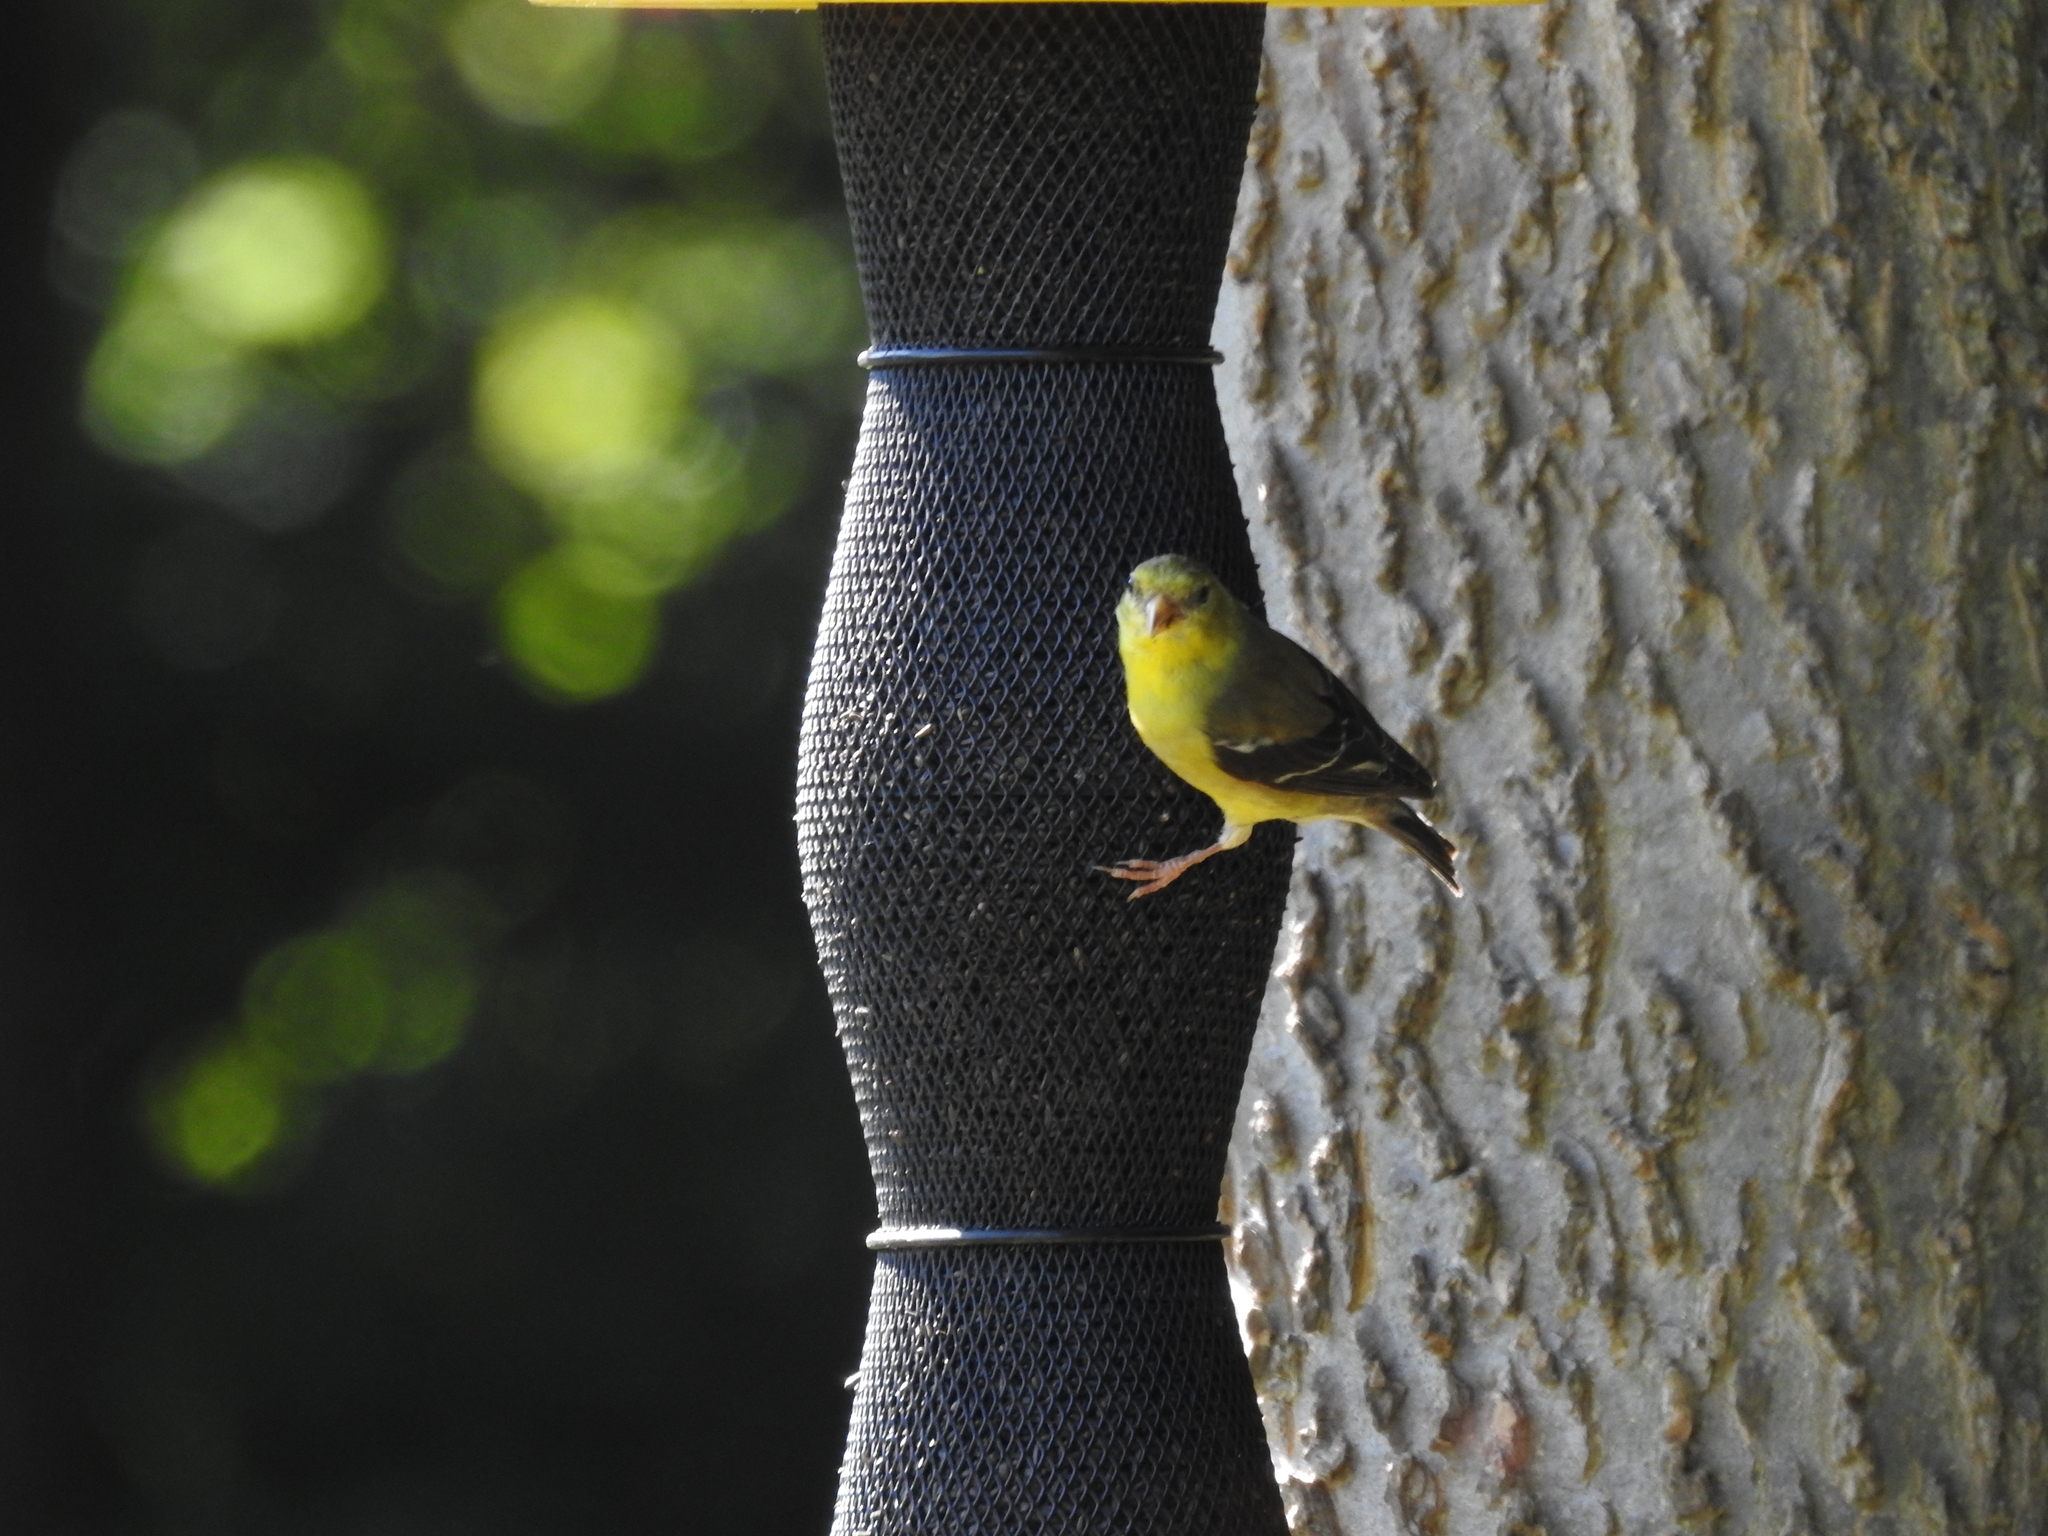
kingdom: Animalia
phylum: Chordata
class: Aves
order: Passeriformes
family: Fringillidae
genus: Spinus
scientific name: Spinus tristis
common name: American goldfinch
